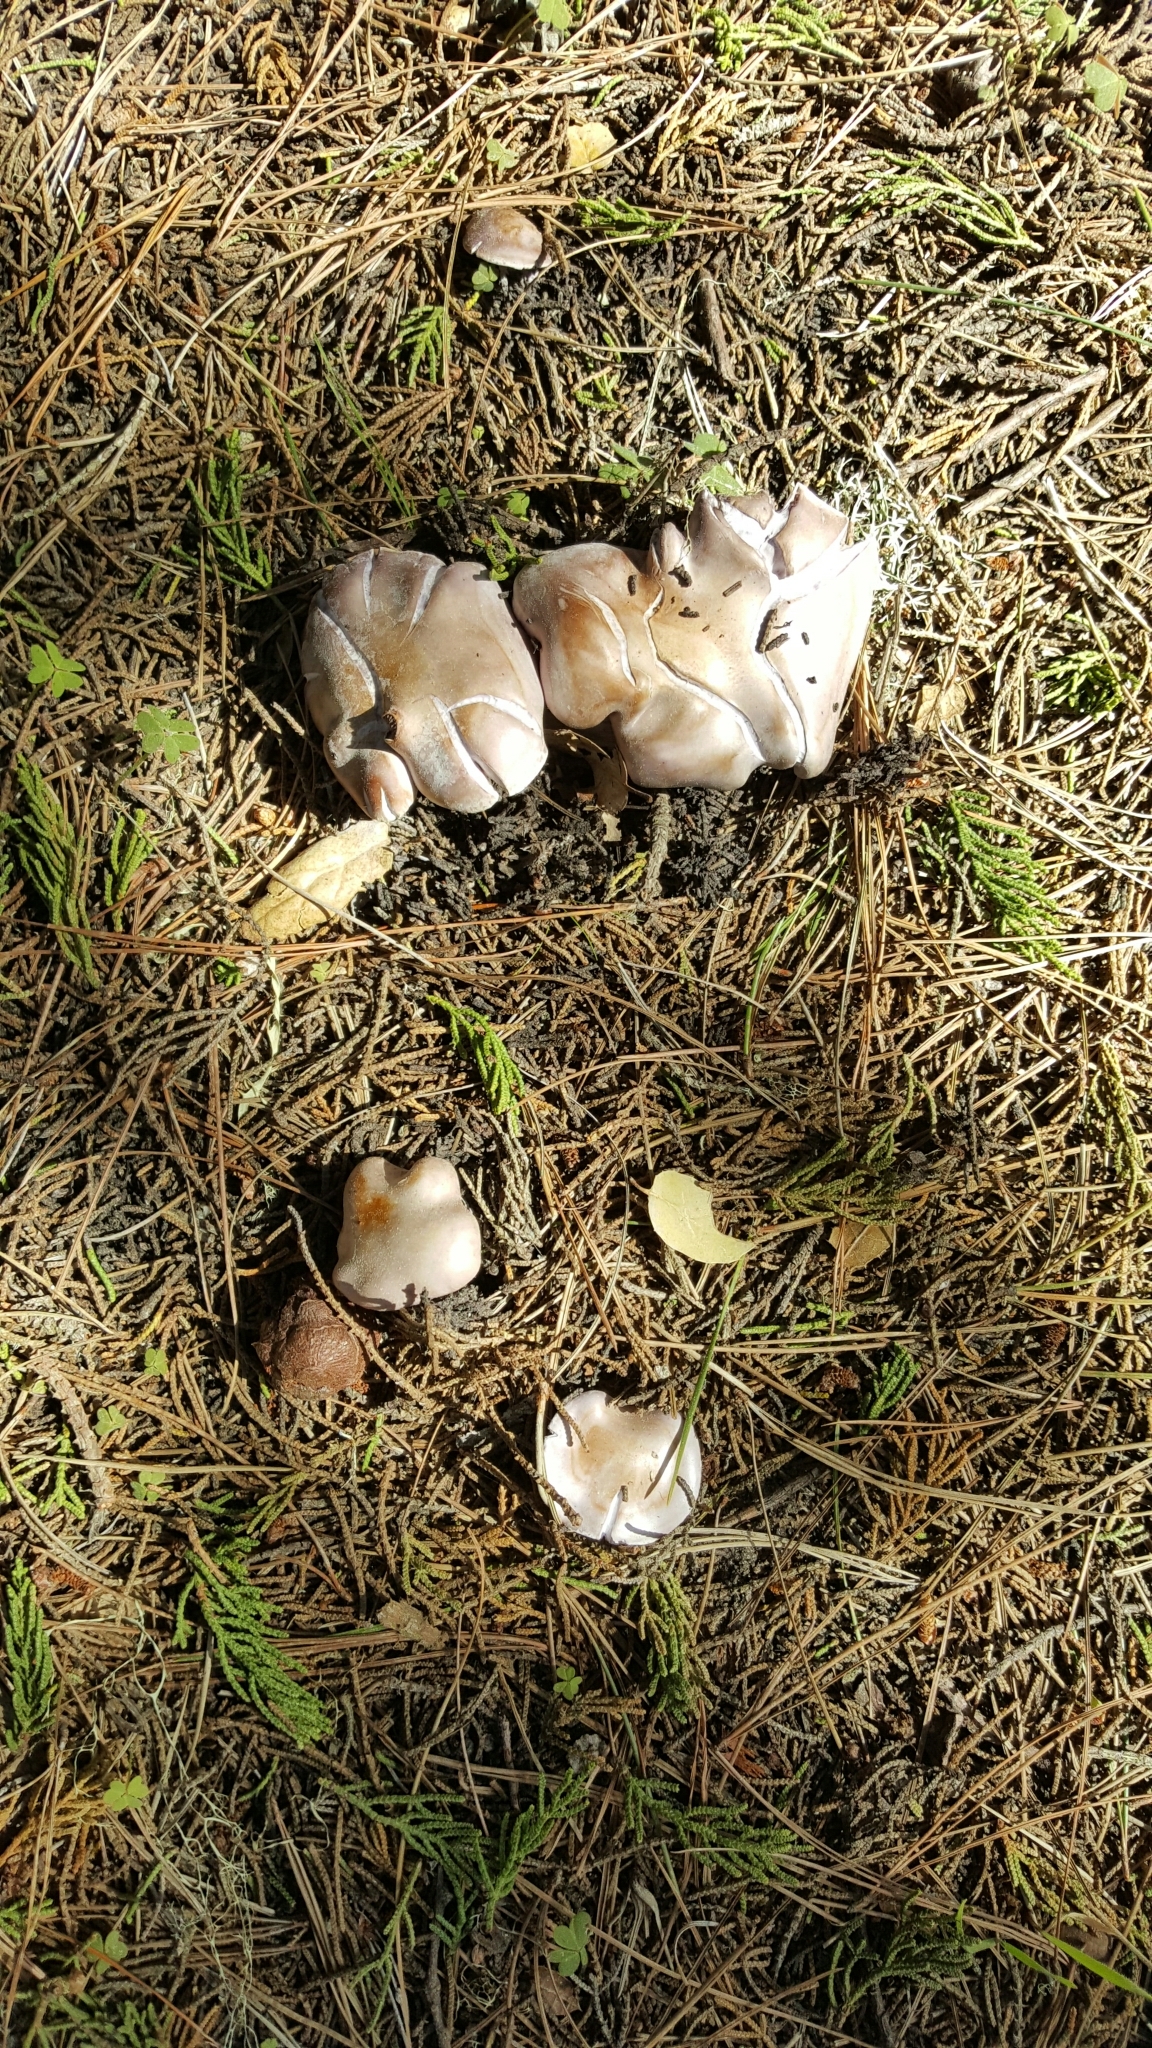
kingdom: Fungi
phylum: Basidiomycota
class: Agaricomycetes
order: Agaricales
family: Tricholomataceae
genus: Collybia
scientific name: Collybia
